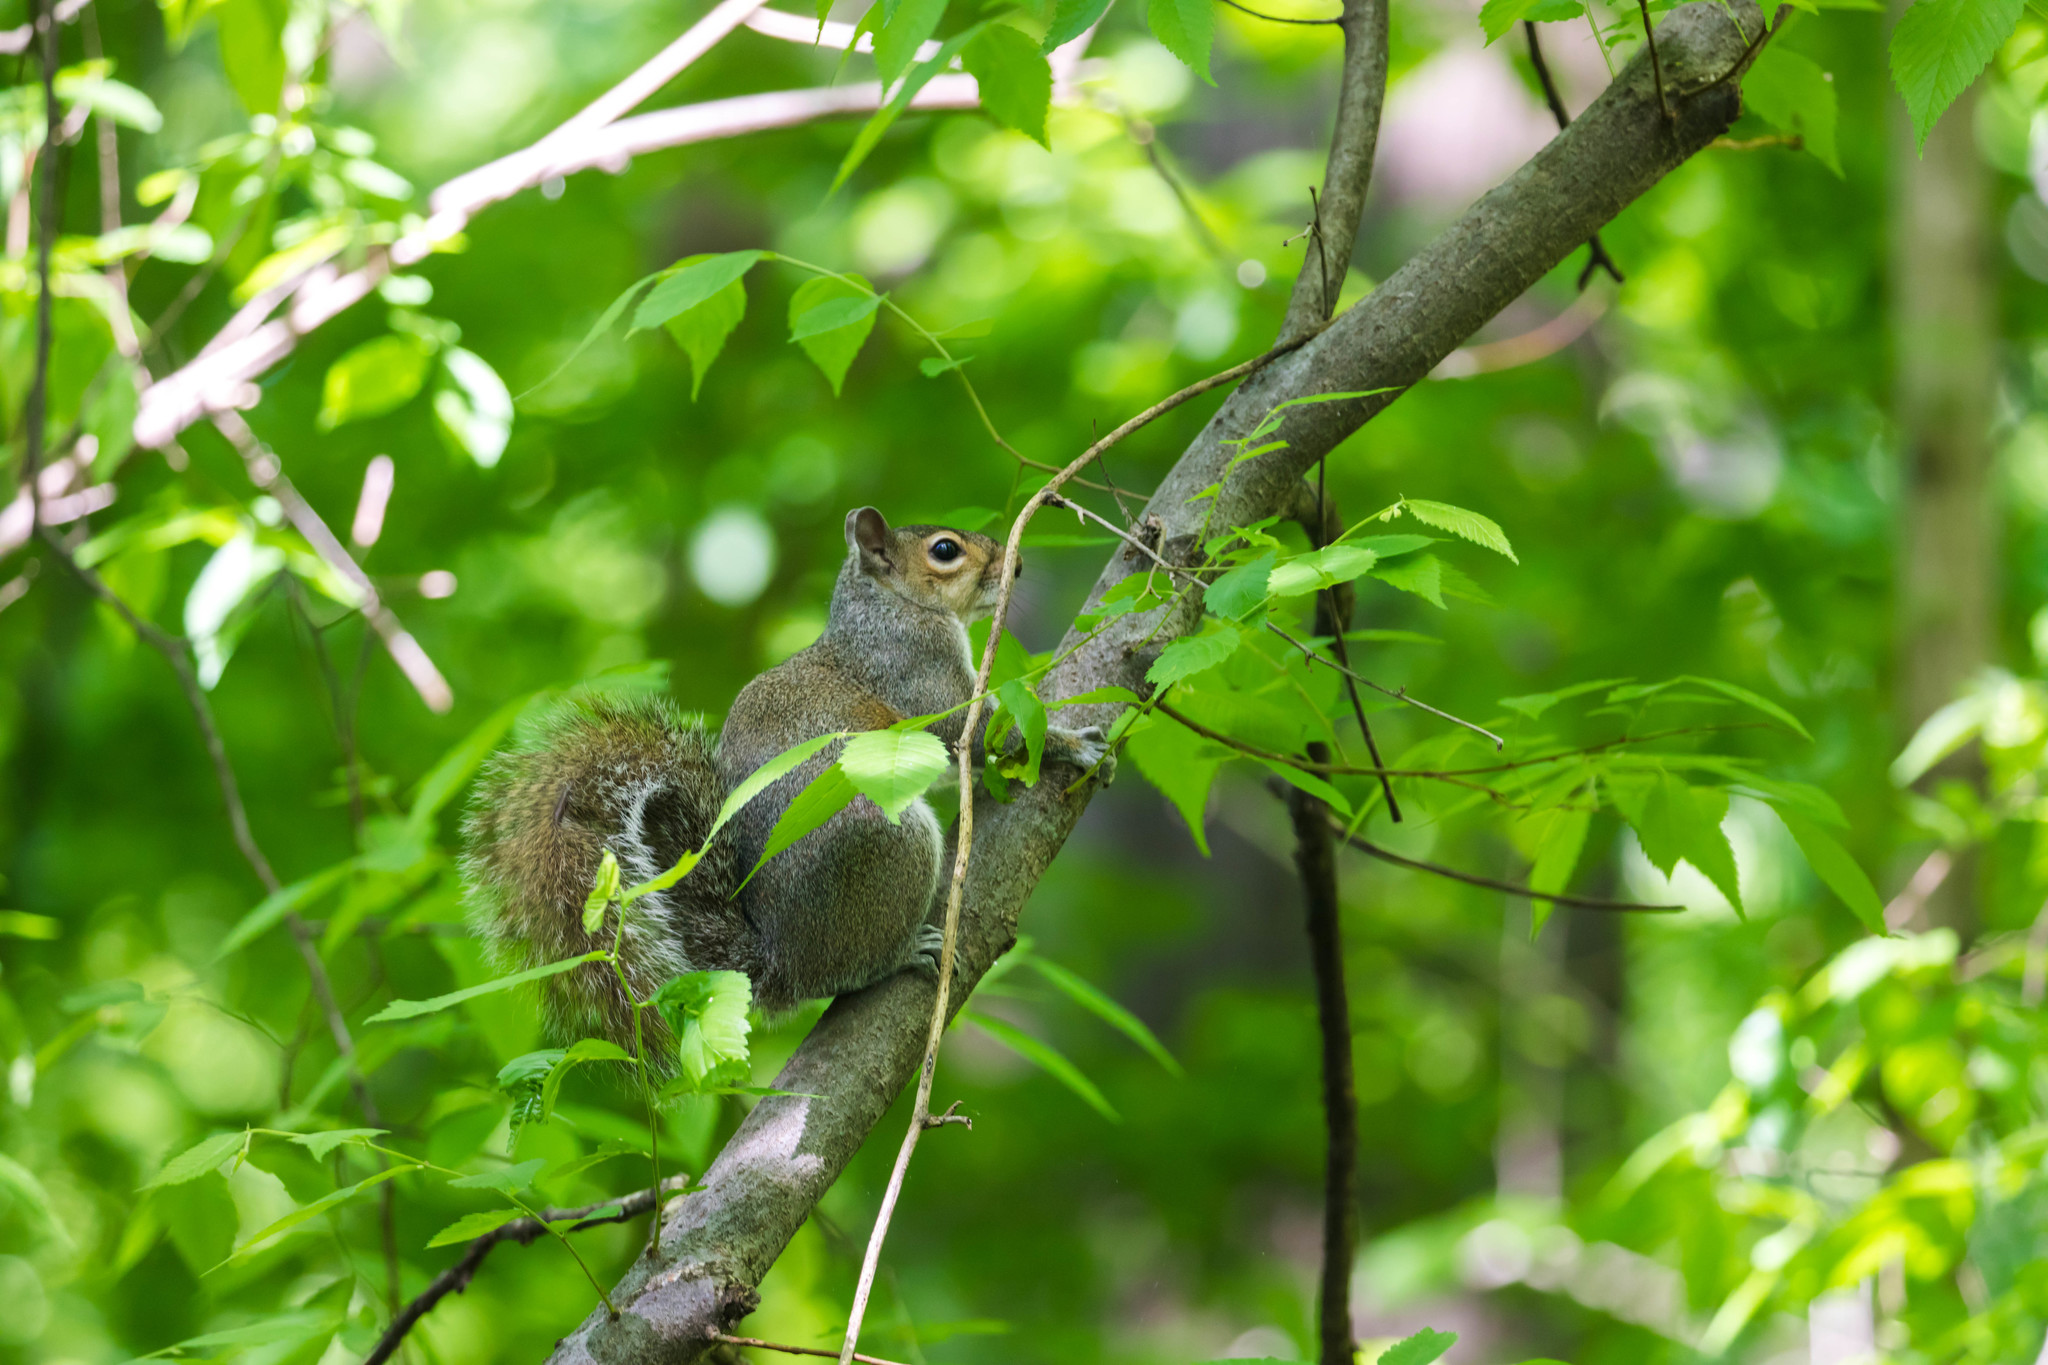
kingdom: Animalia
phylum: Chordata
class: Mammalia
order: Rodentia
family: Sciuridae
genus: Sciurus
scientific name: Sciurus carolinensis
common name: Eastern gray squirrel
